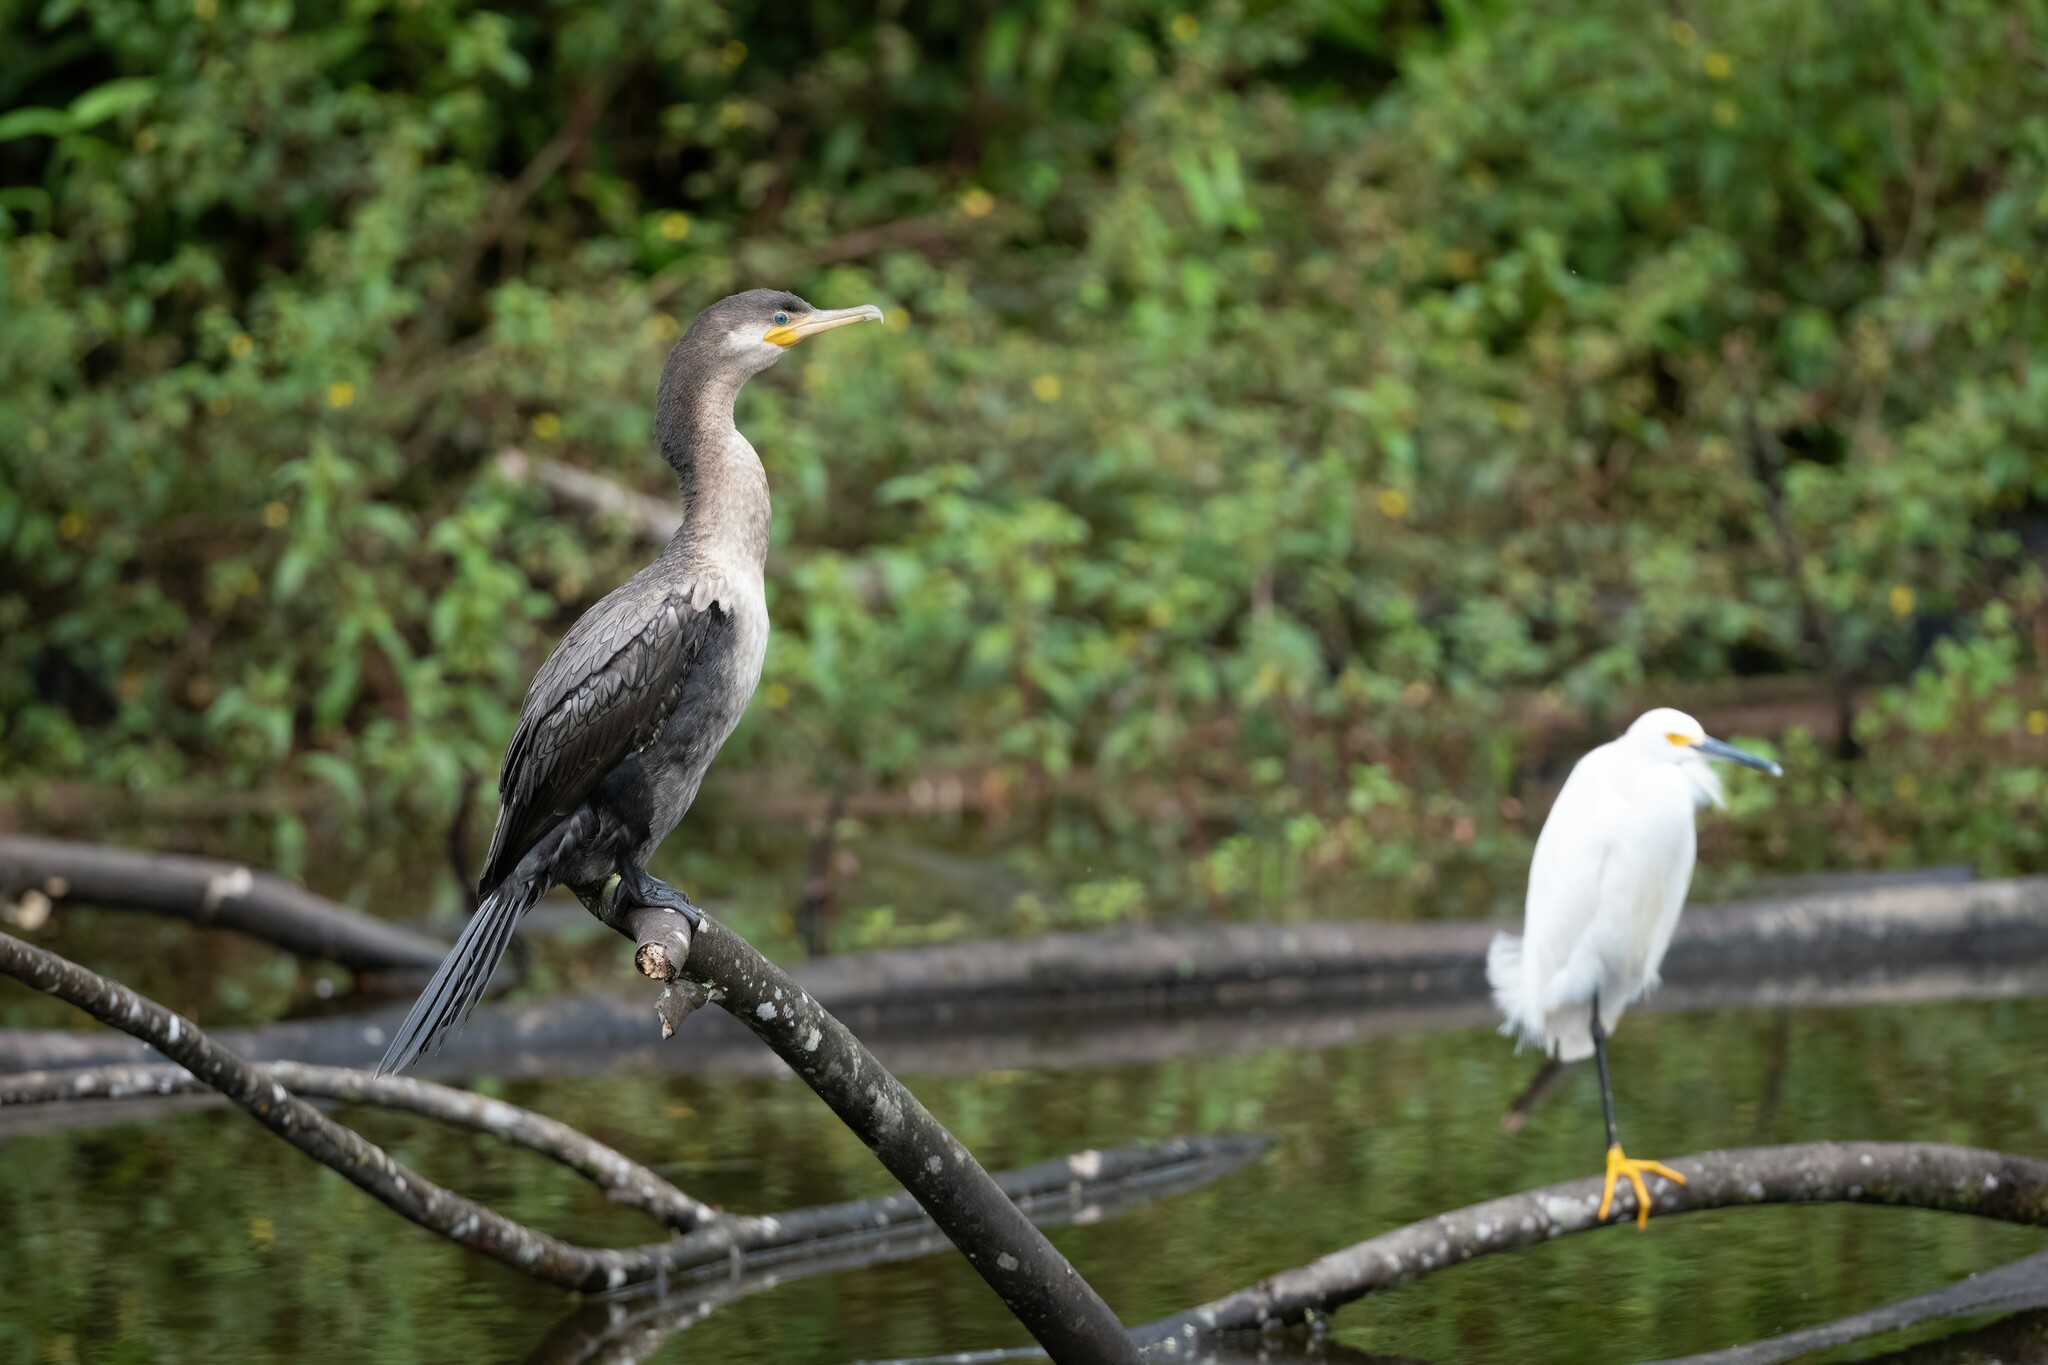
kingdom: Animalia
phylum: Chordata
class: Aves
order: Suliformes
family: Phalacrocoracidae
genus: Phalacrocorax
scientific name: Phalacrocorax brasilianus
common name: Neotropic cormorant
